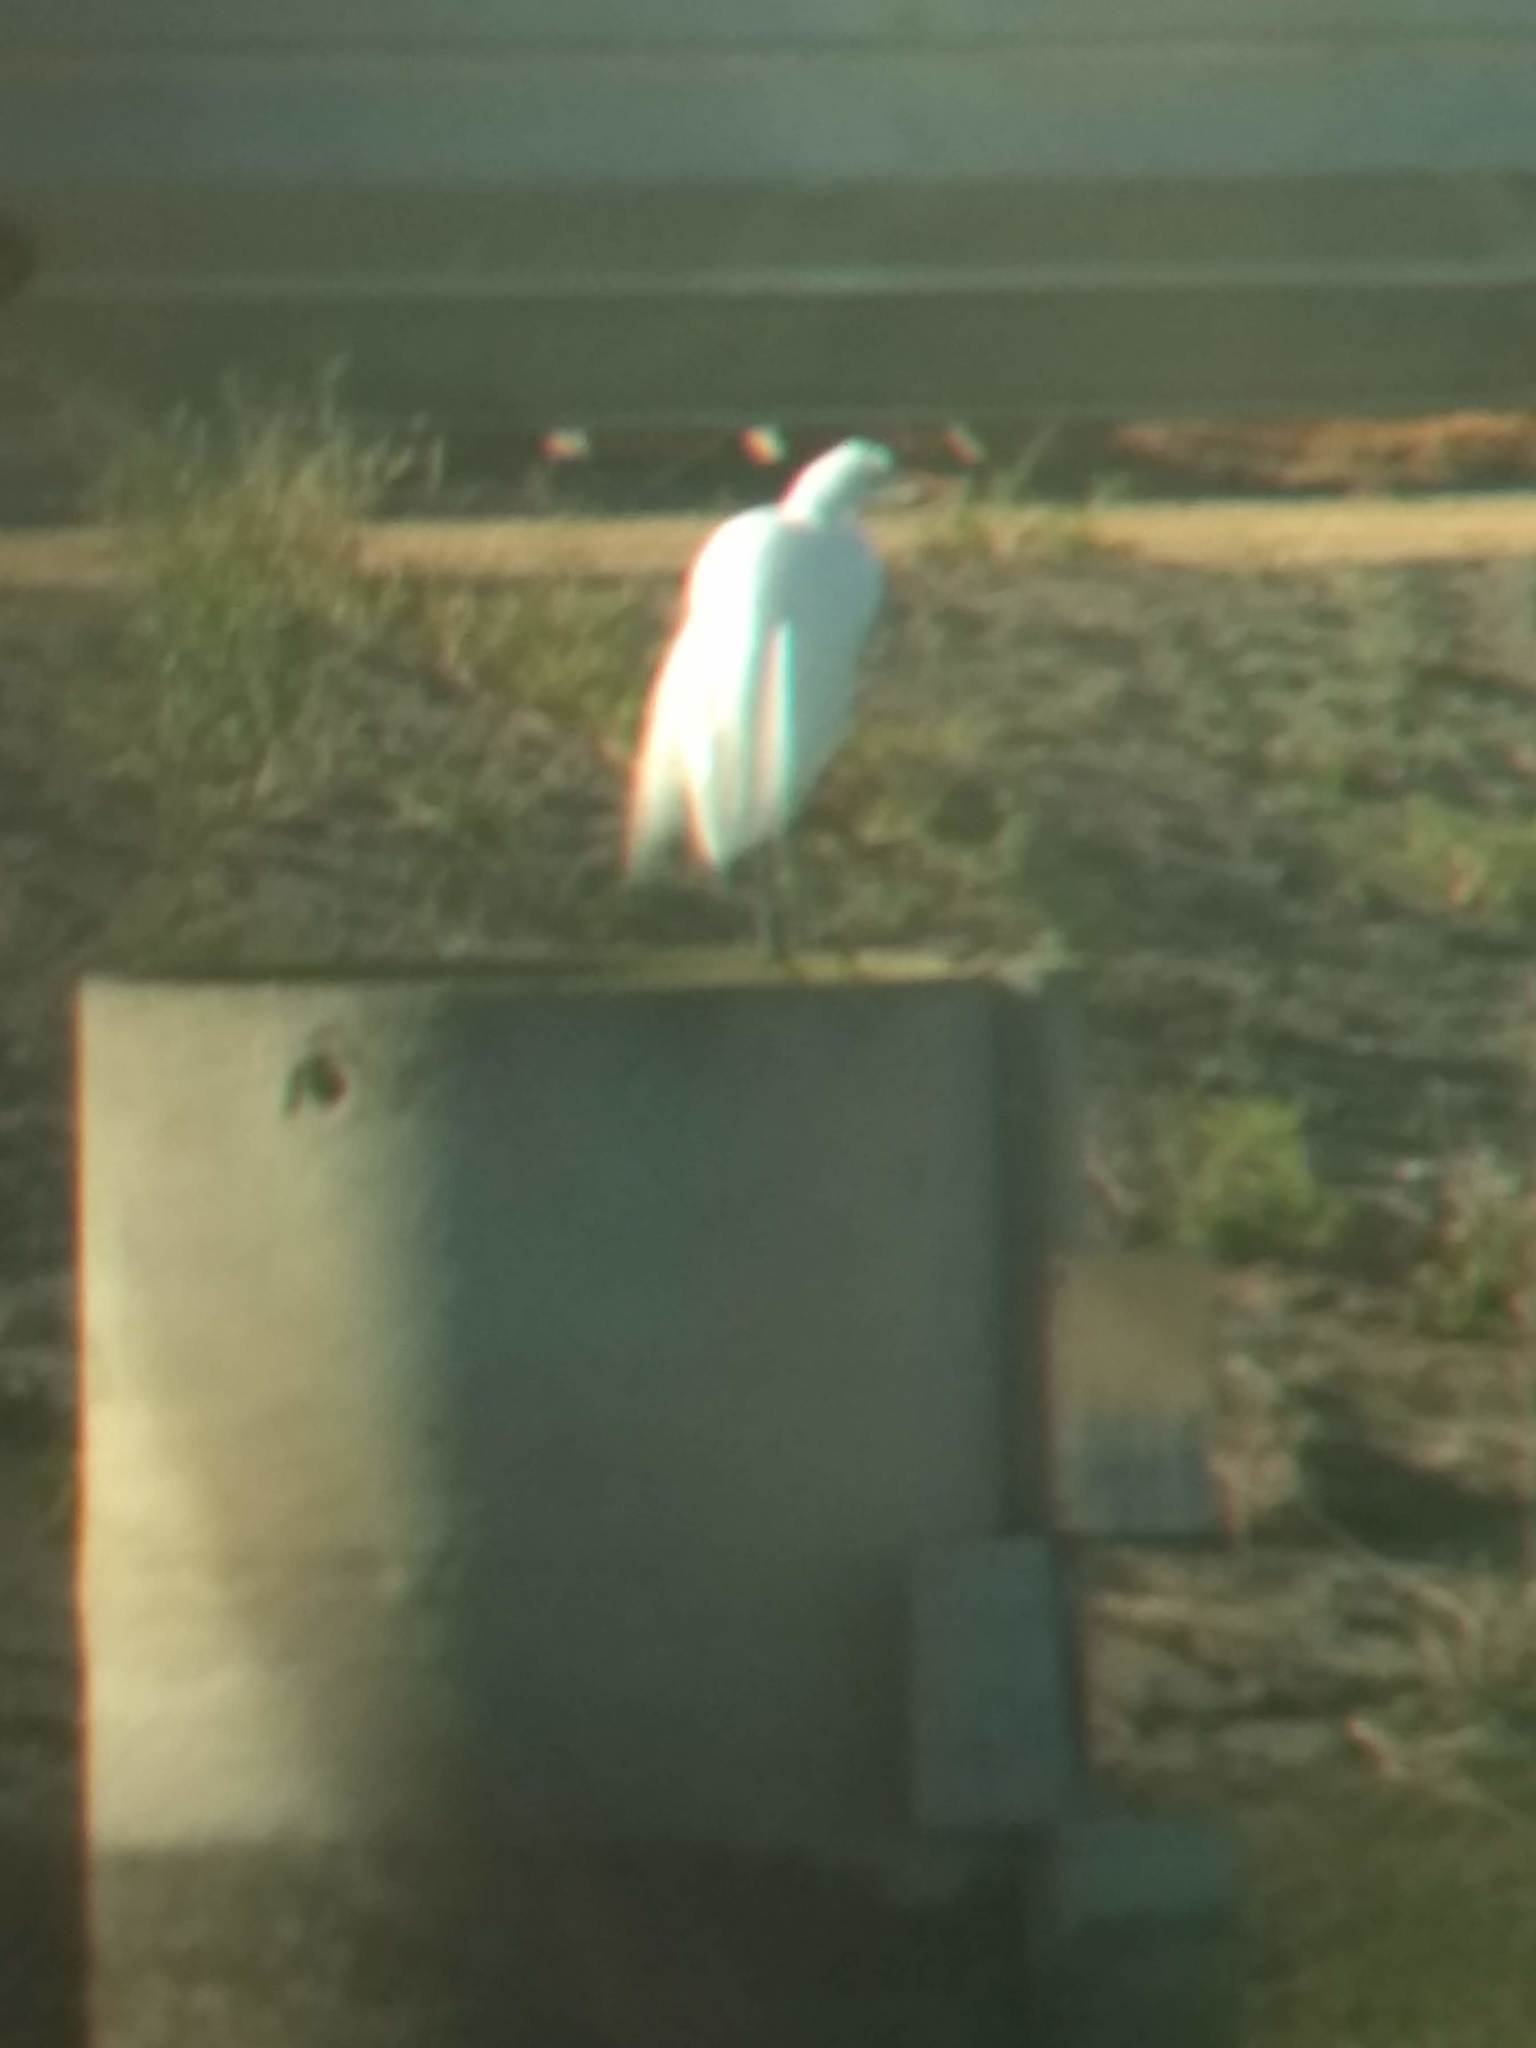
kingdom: Animalia
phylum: Chordata
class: Aves
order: Pelecaniformes
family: Ardeidae
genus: Ardea
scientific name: Ardea alba
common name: Great egret
